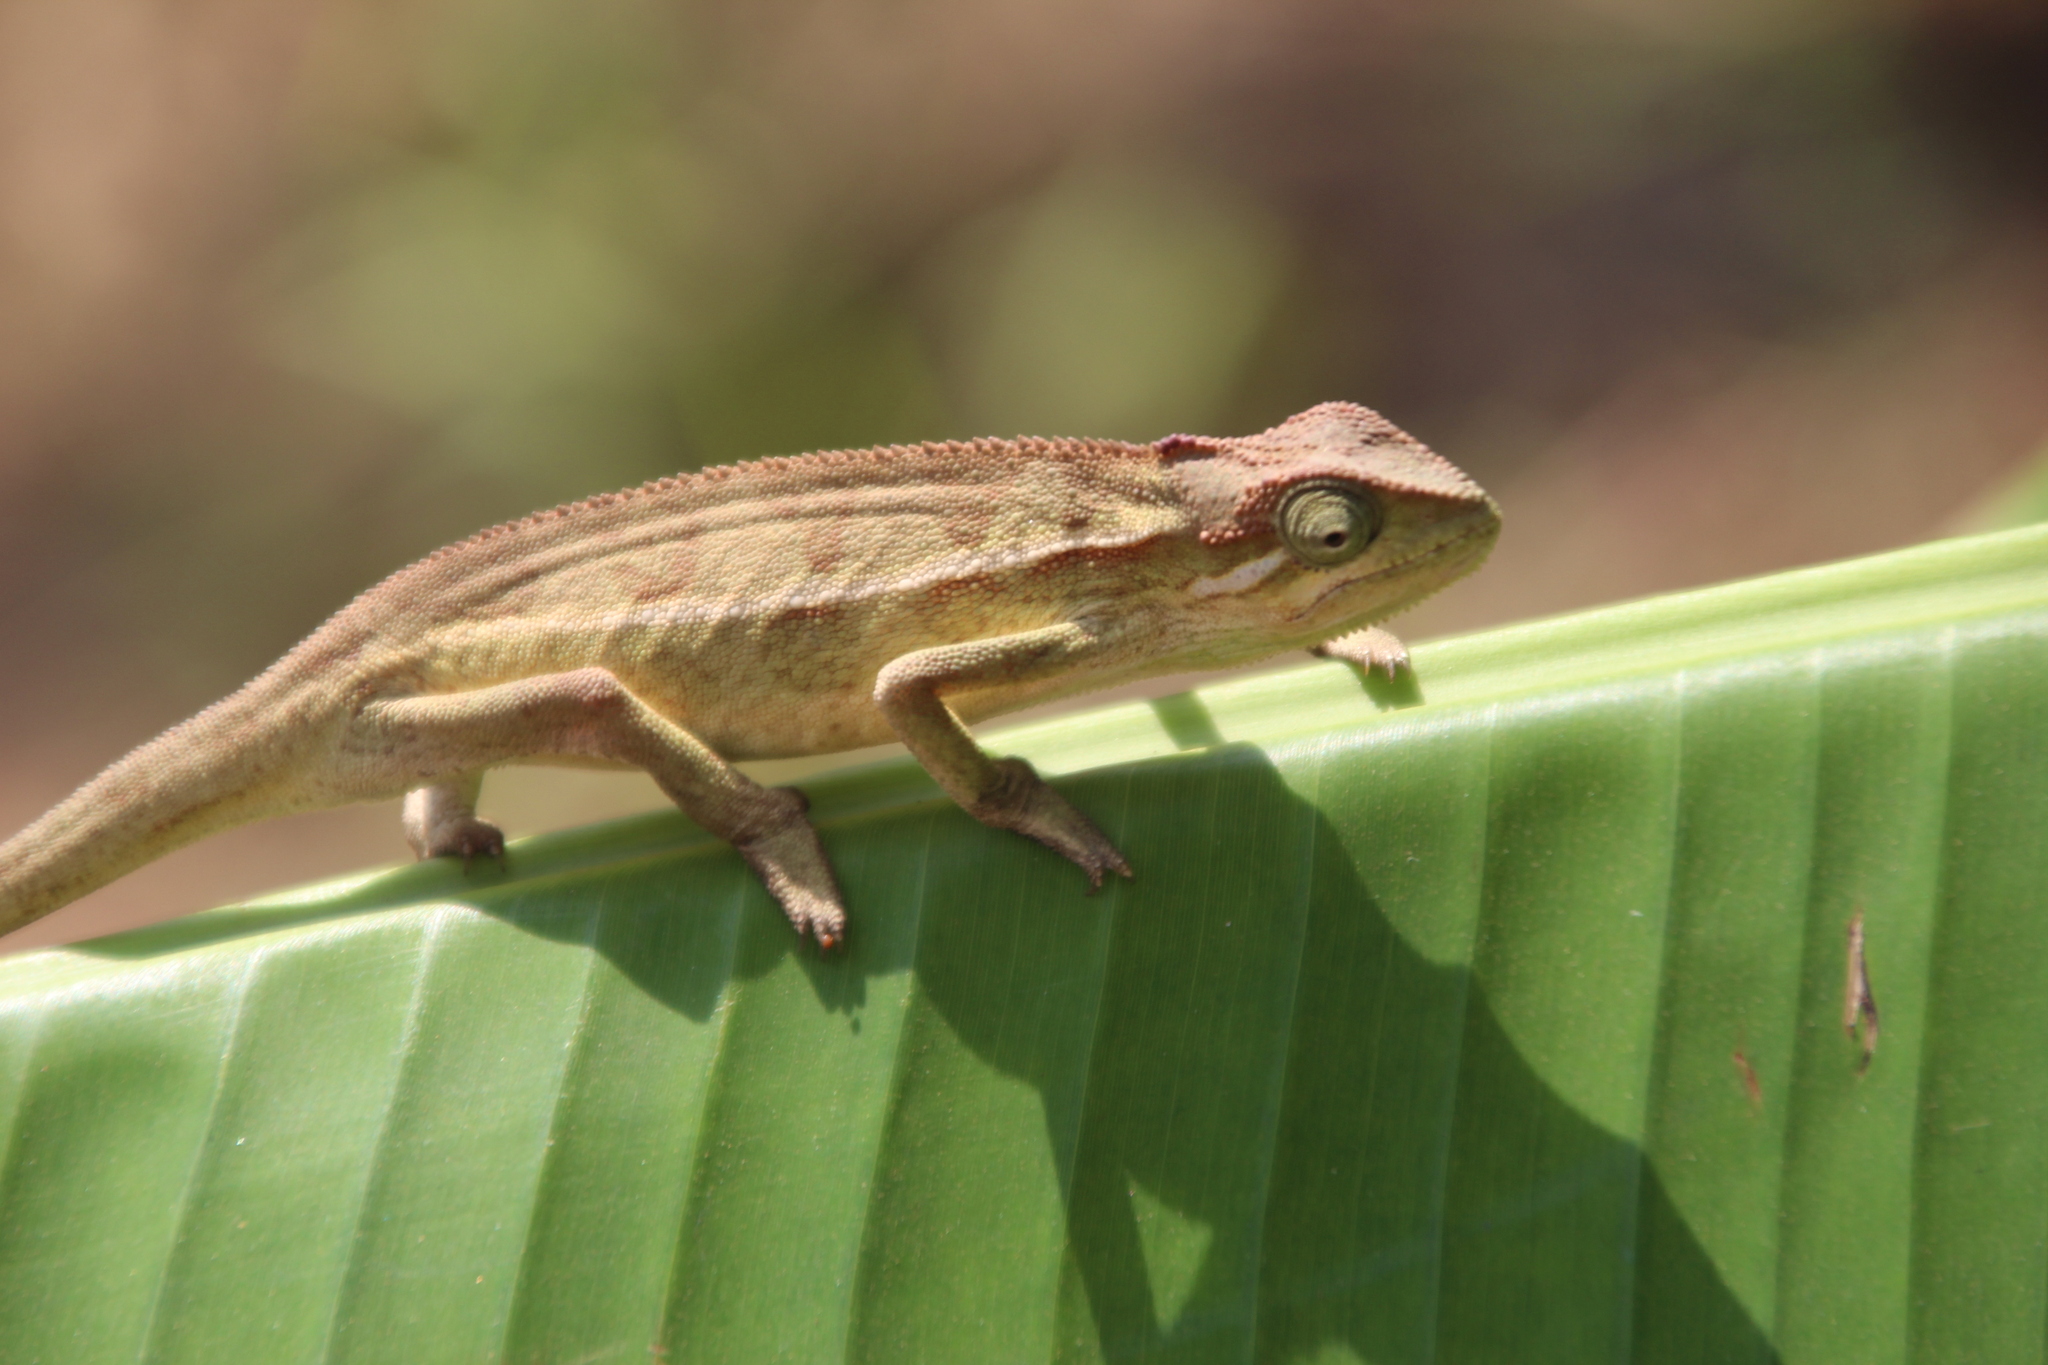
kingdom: Animalia
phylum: Chordata
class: Squamata
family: Chamaeleonidae
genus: Trioceros
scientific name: Trioceros ellioti
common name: Montane side-striped chameleon
